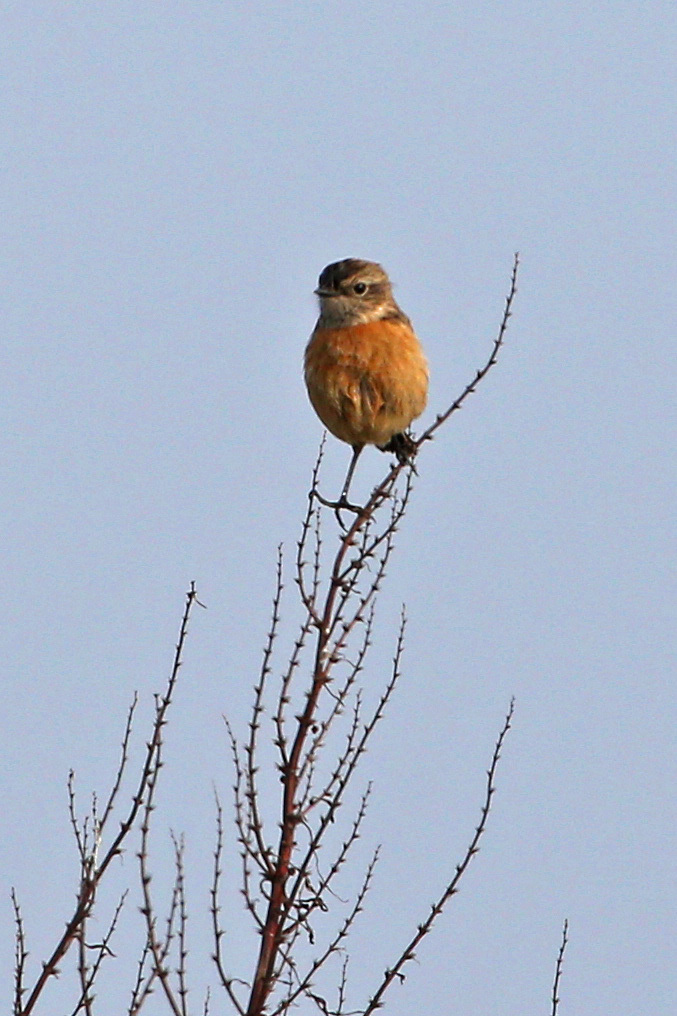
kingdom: Animalia
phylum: Chordata
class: Aves
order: Passeriformes
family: Muscicapidae
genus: Saxicola
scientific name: Saxicola rubicola
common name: European stonechat
